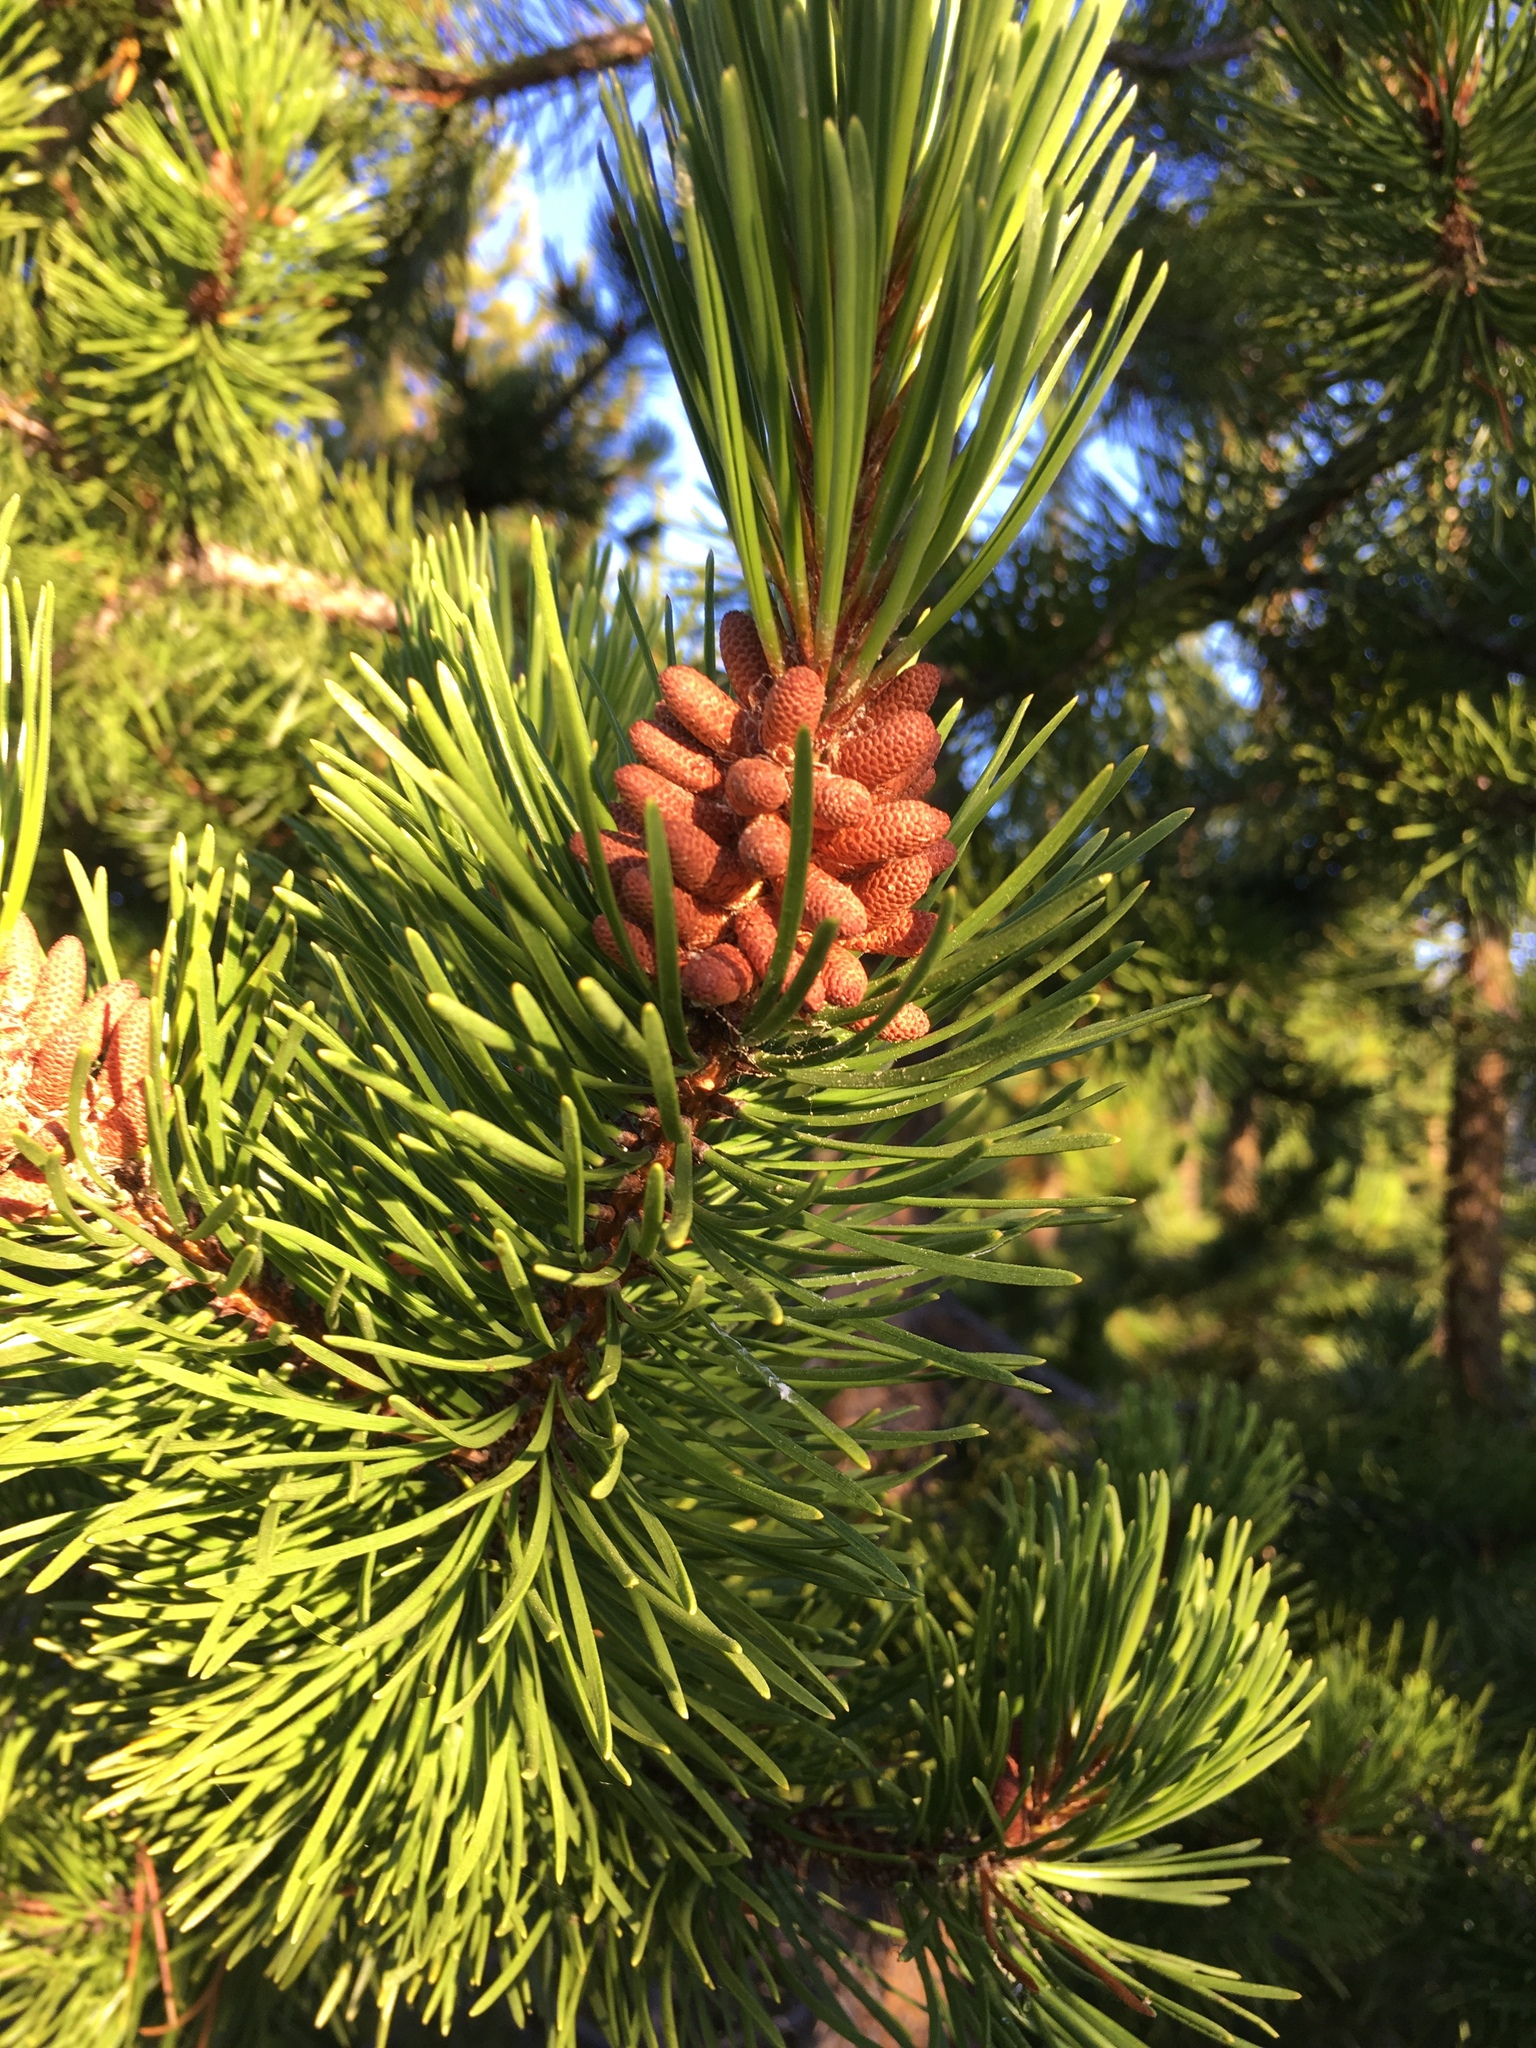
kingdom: Plantae
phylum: Tracheophyta
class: Pinopsida
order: Pinales
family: Pinaceae
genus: Pinus
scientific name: Pinus contorta
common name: Lodgepole pine
